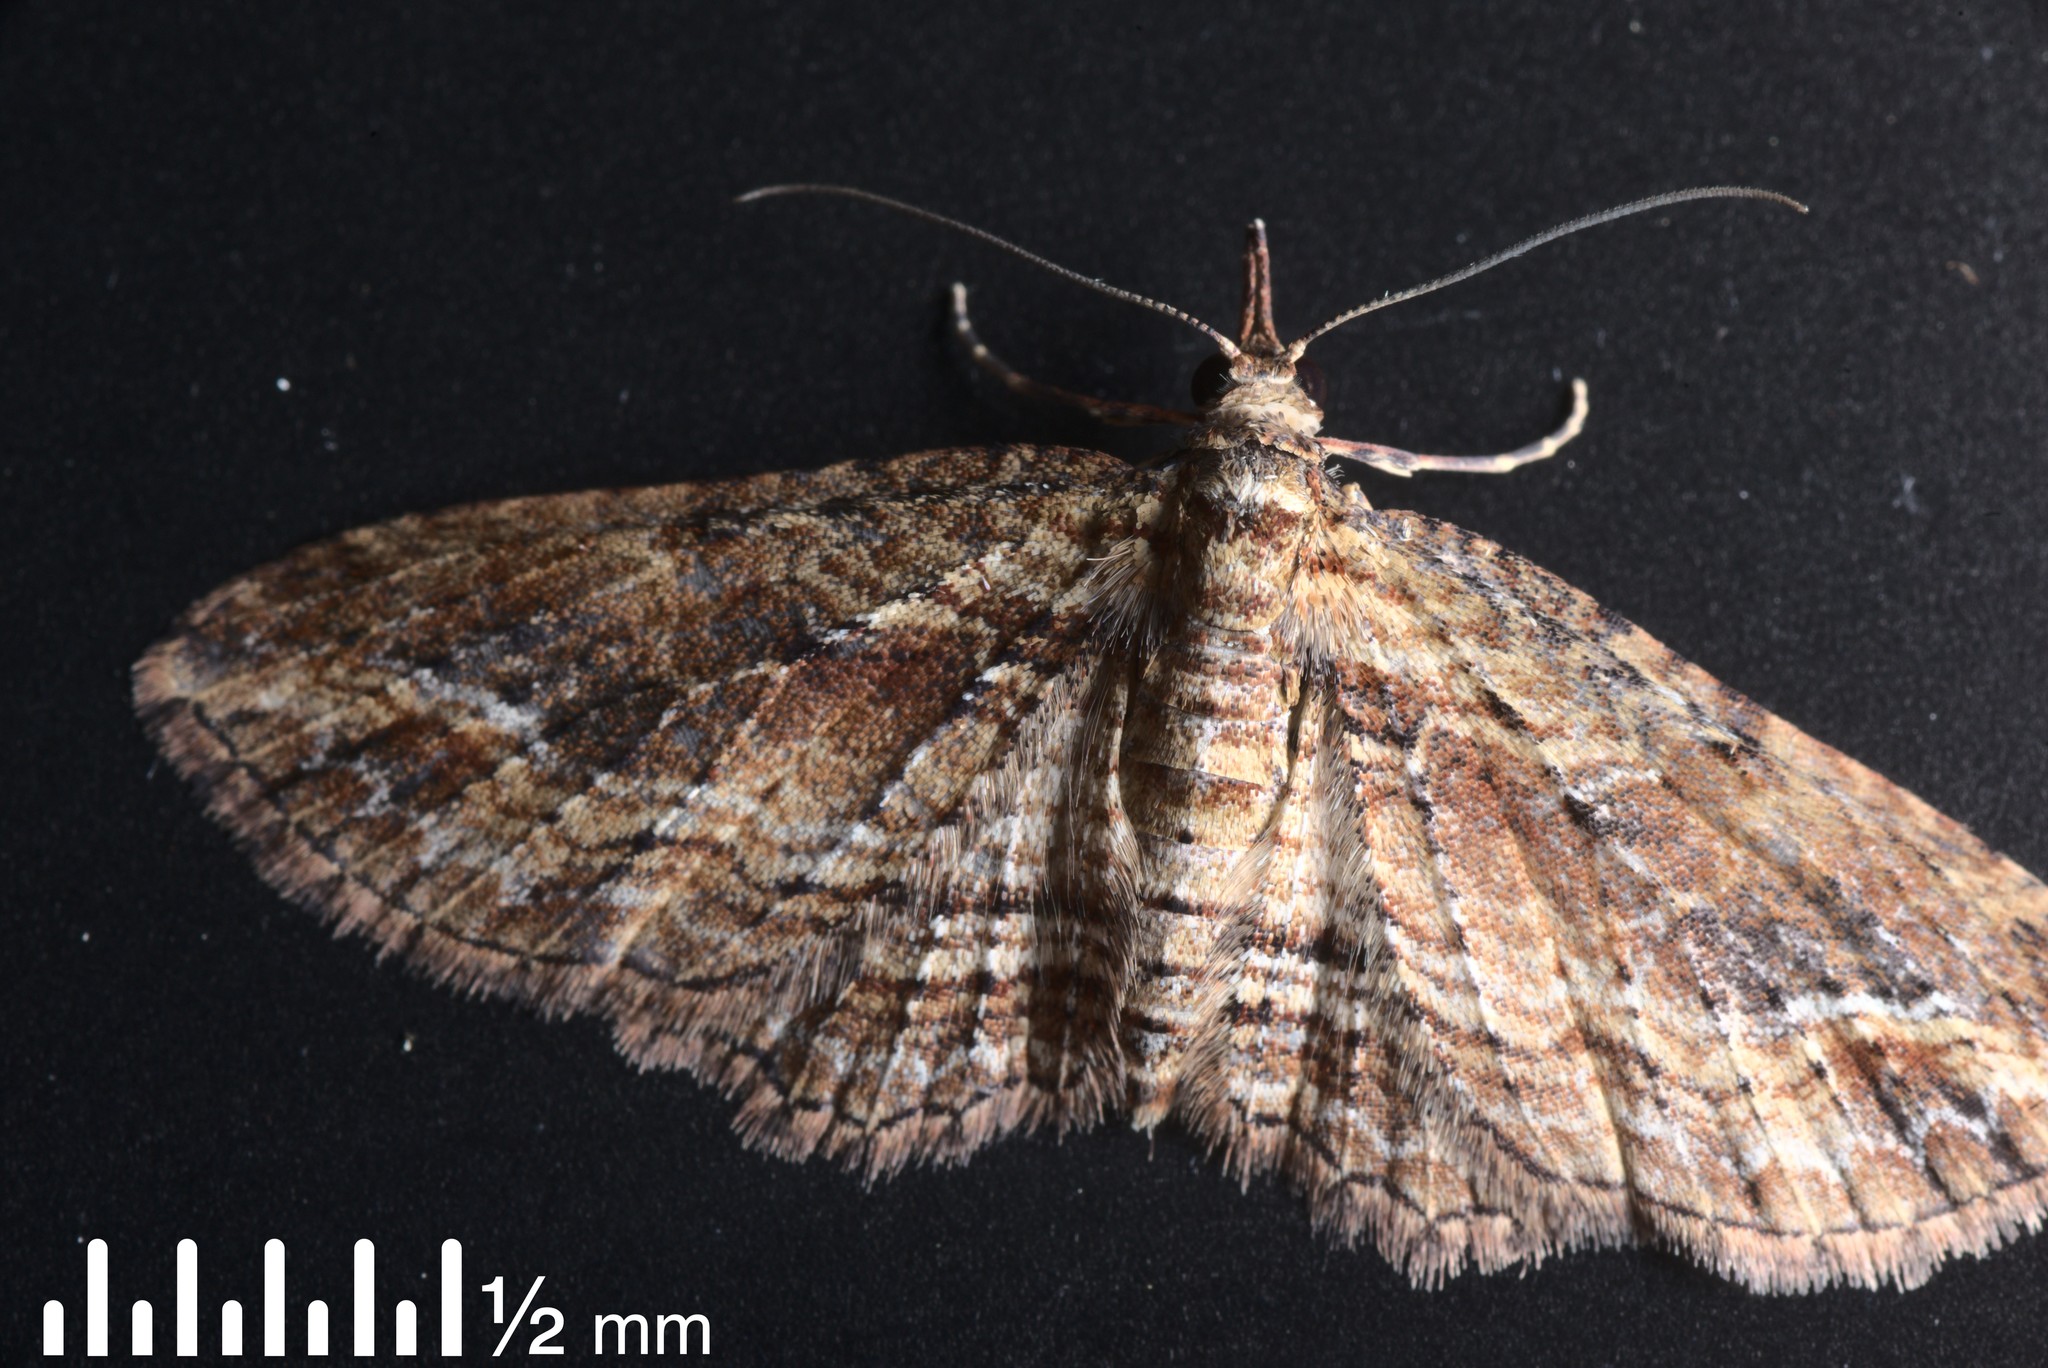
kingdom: Animalia
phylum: Arthropoda
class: Insecta
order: Lepidoptera
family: Geometridae
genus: Chloroclystis
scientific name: Chloroclystis filata
